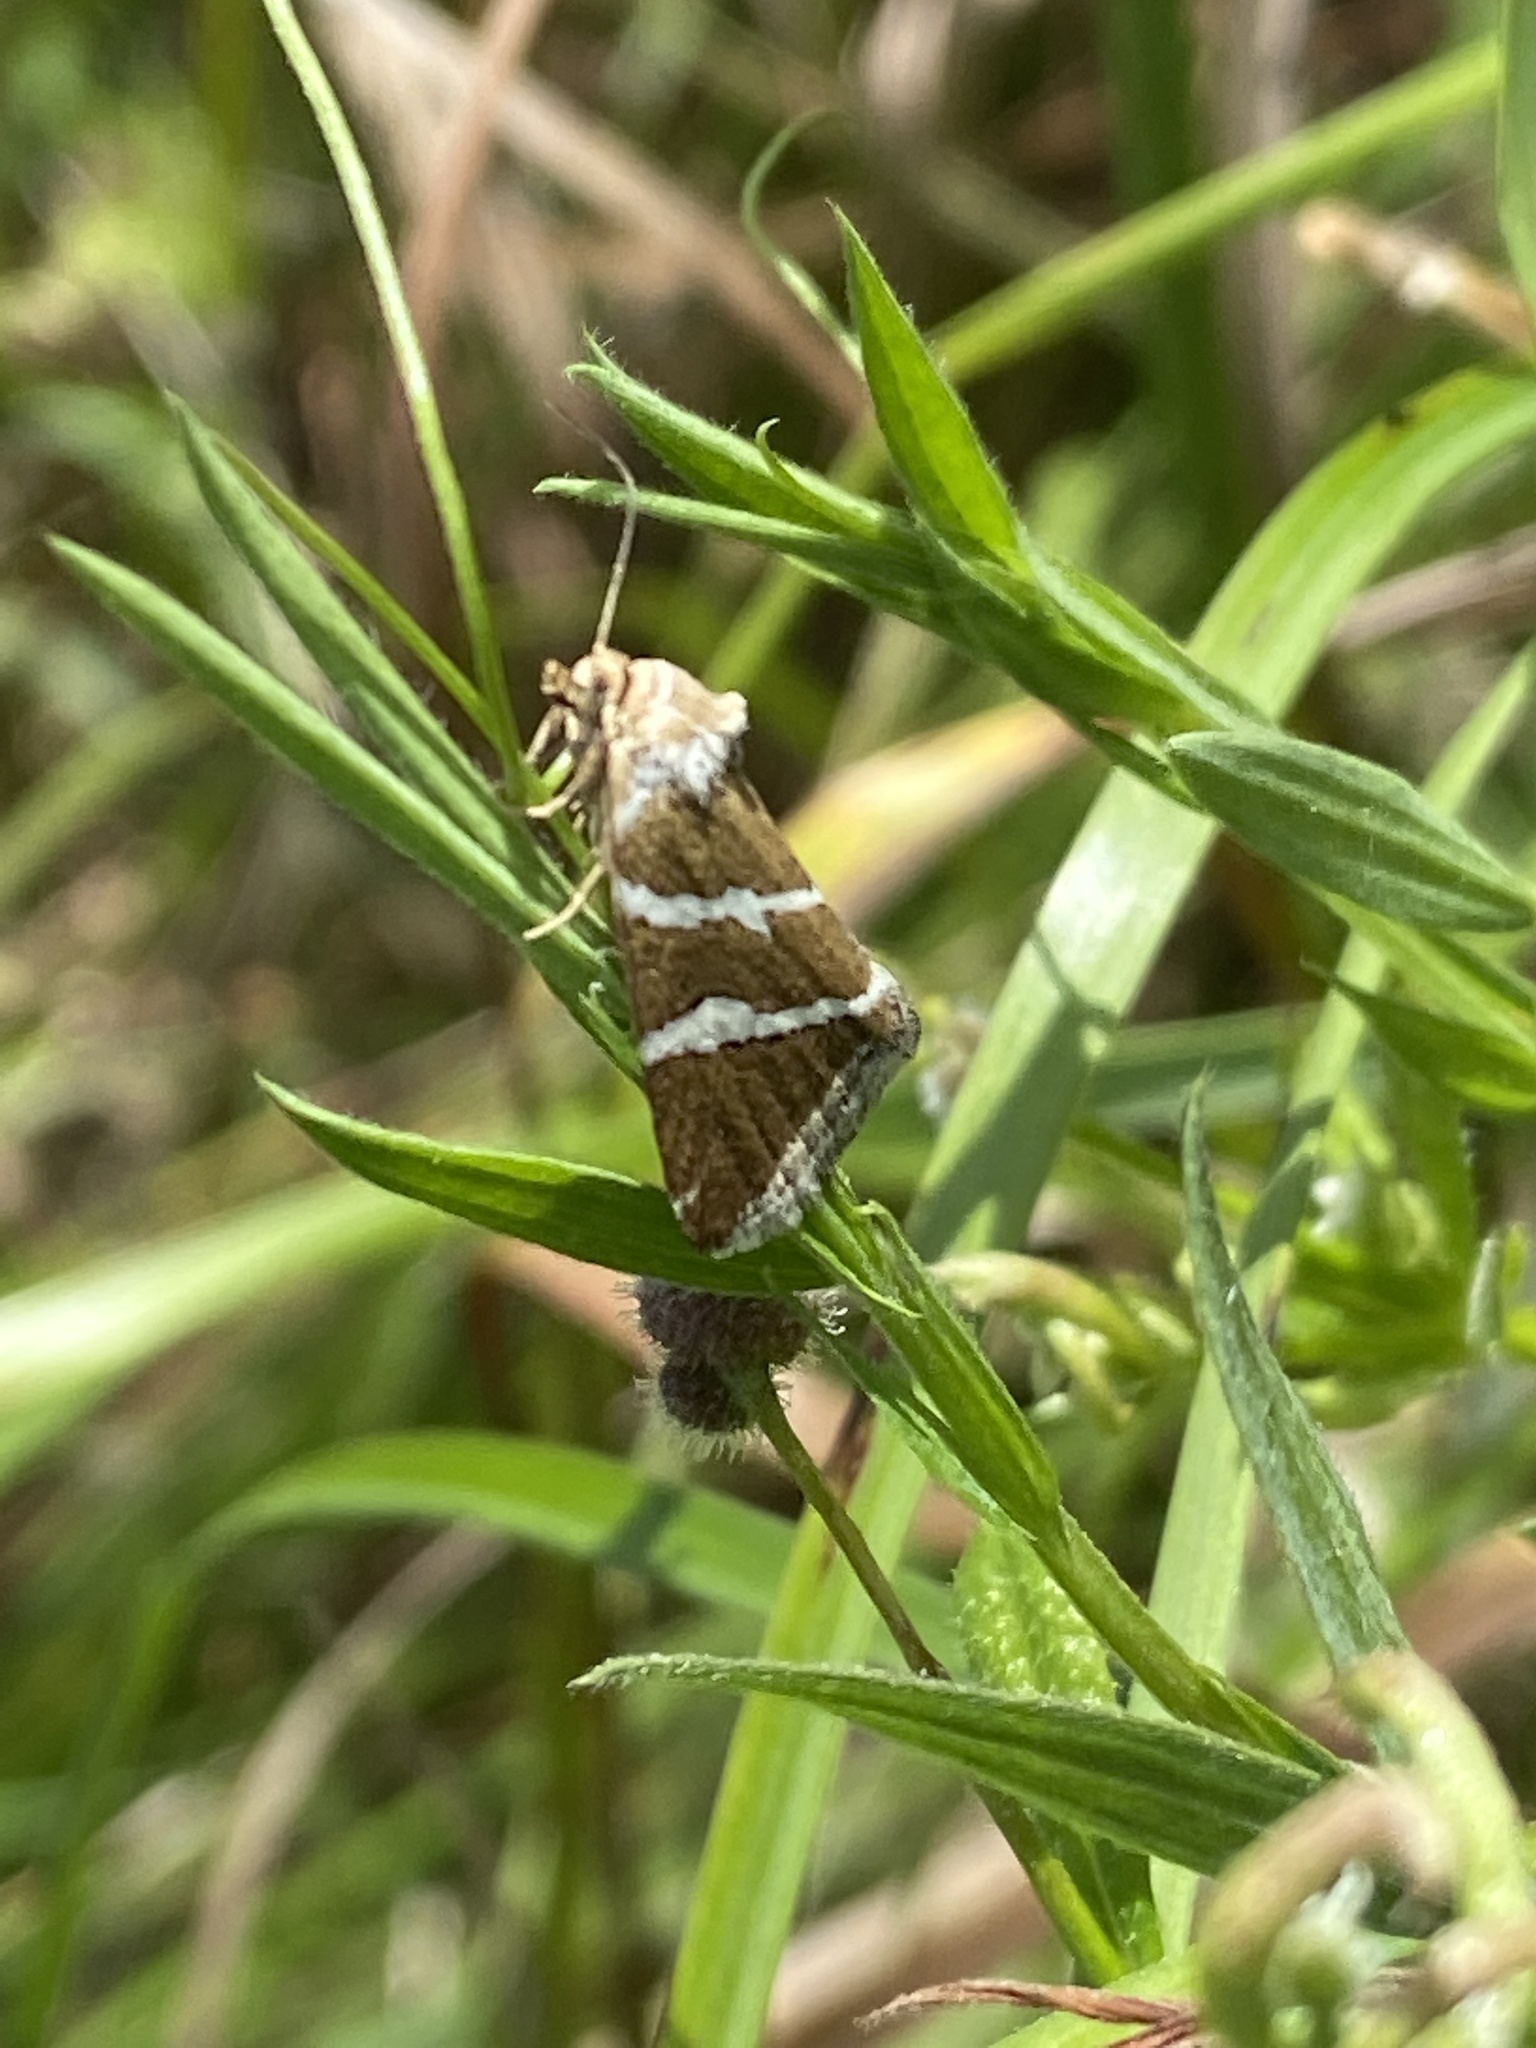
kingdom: Animalia
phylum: Arthropoda
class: Insecta
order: Lepidoptera
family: Noctuidae
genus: Deltote
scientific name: Deltote bankiana
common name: Silver barred
